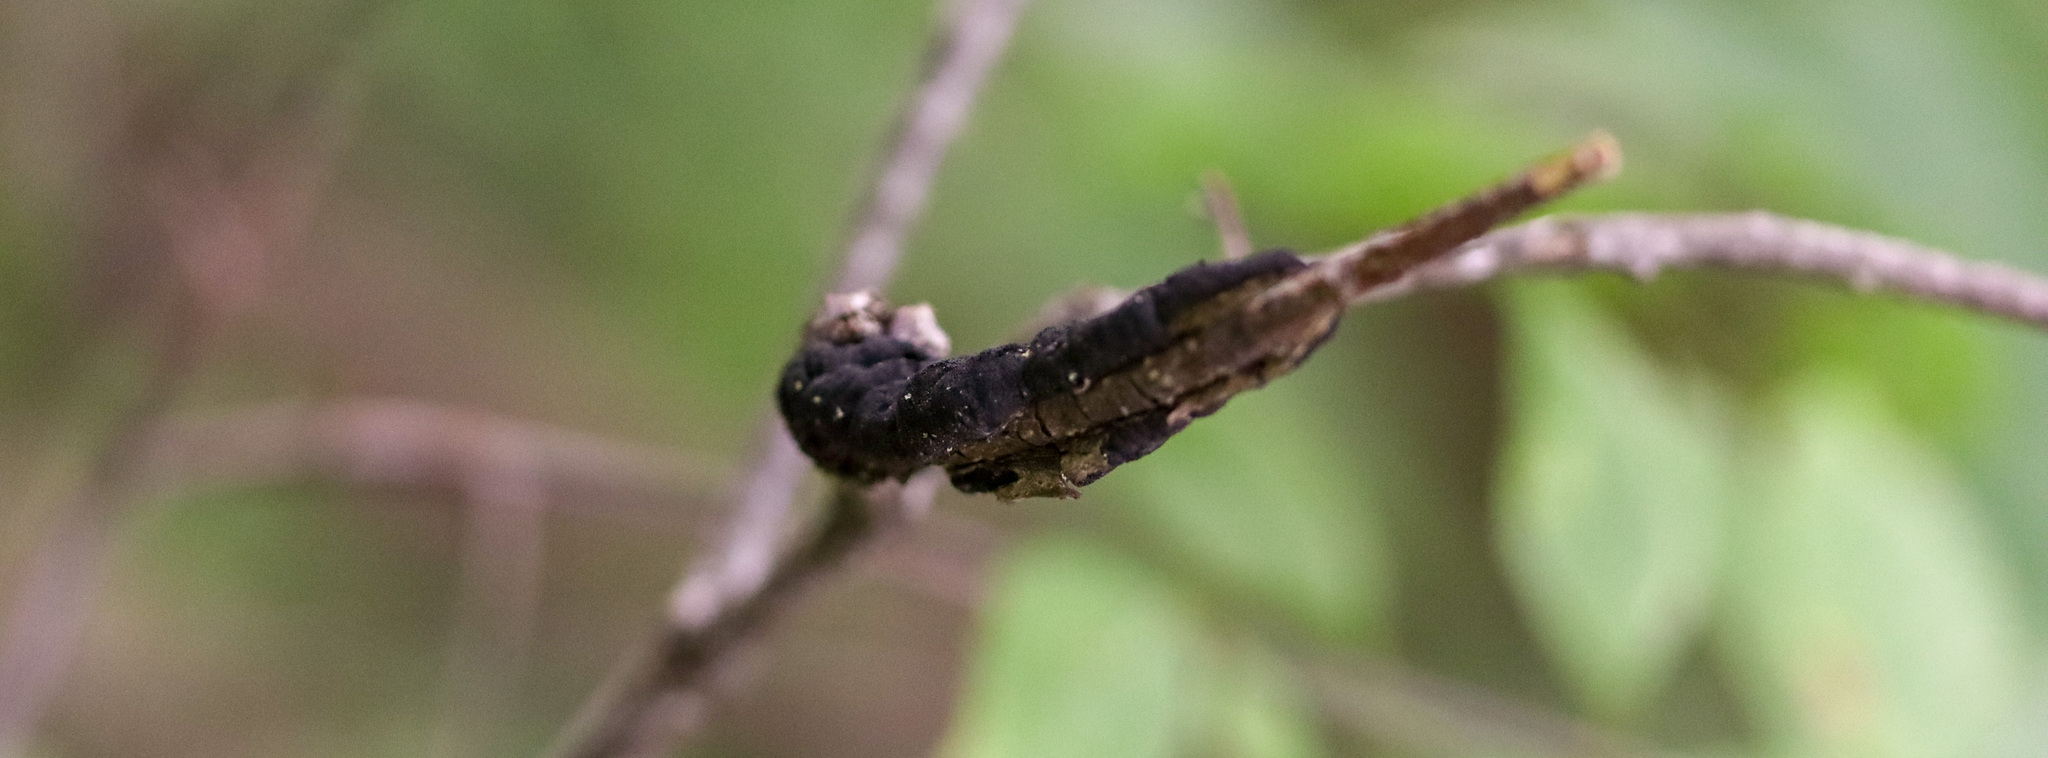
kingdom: Fungi
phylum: Ascomycota
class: Dothideomycetes
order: Venturiales
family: Venturiaceae
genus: Apiosporina
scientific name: Apiosporina morbosa
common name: Black knot
